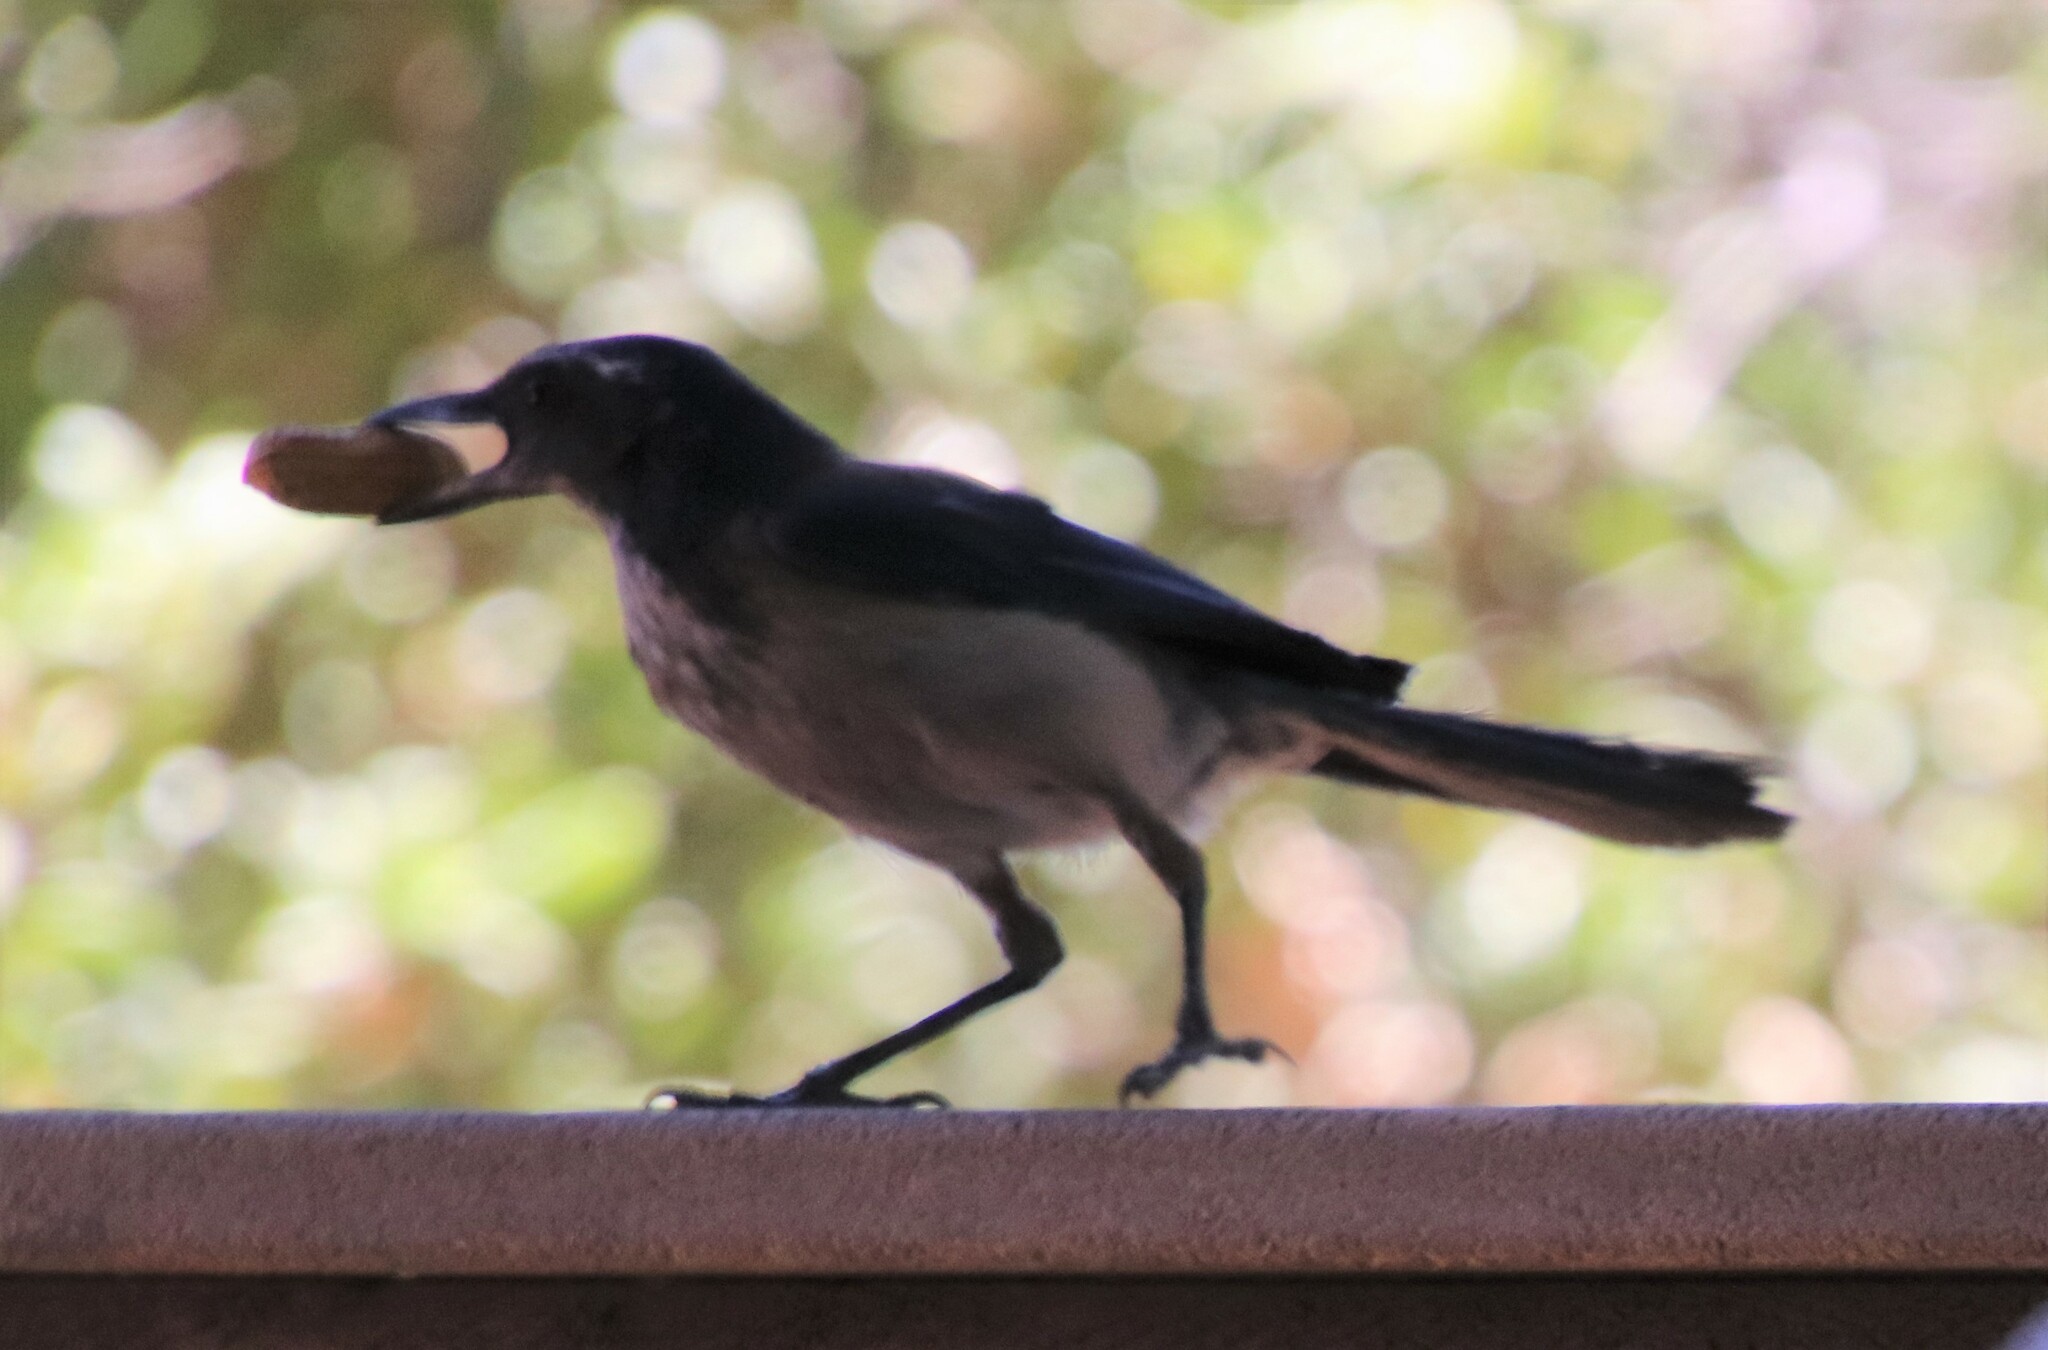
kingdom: Animalia
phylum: Chordata
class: Aves
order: Passeriformes
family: Corvidae
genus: Aphelocoma
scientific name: Aphelocoma californica
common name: California scrub-jay
